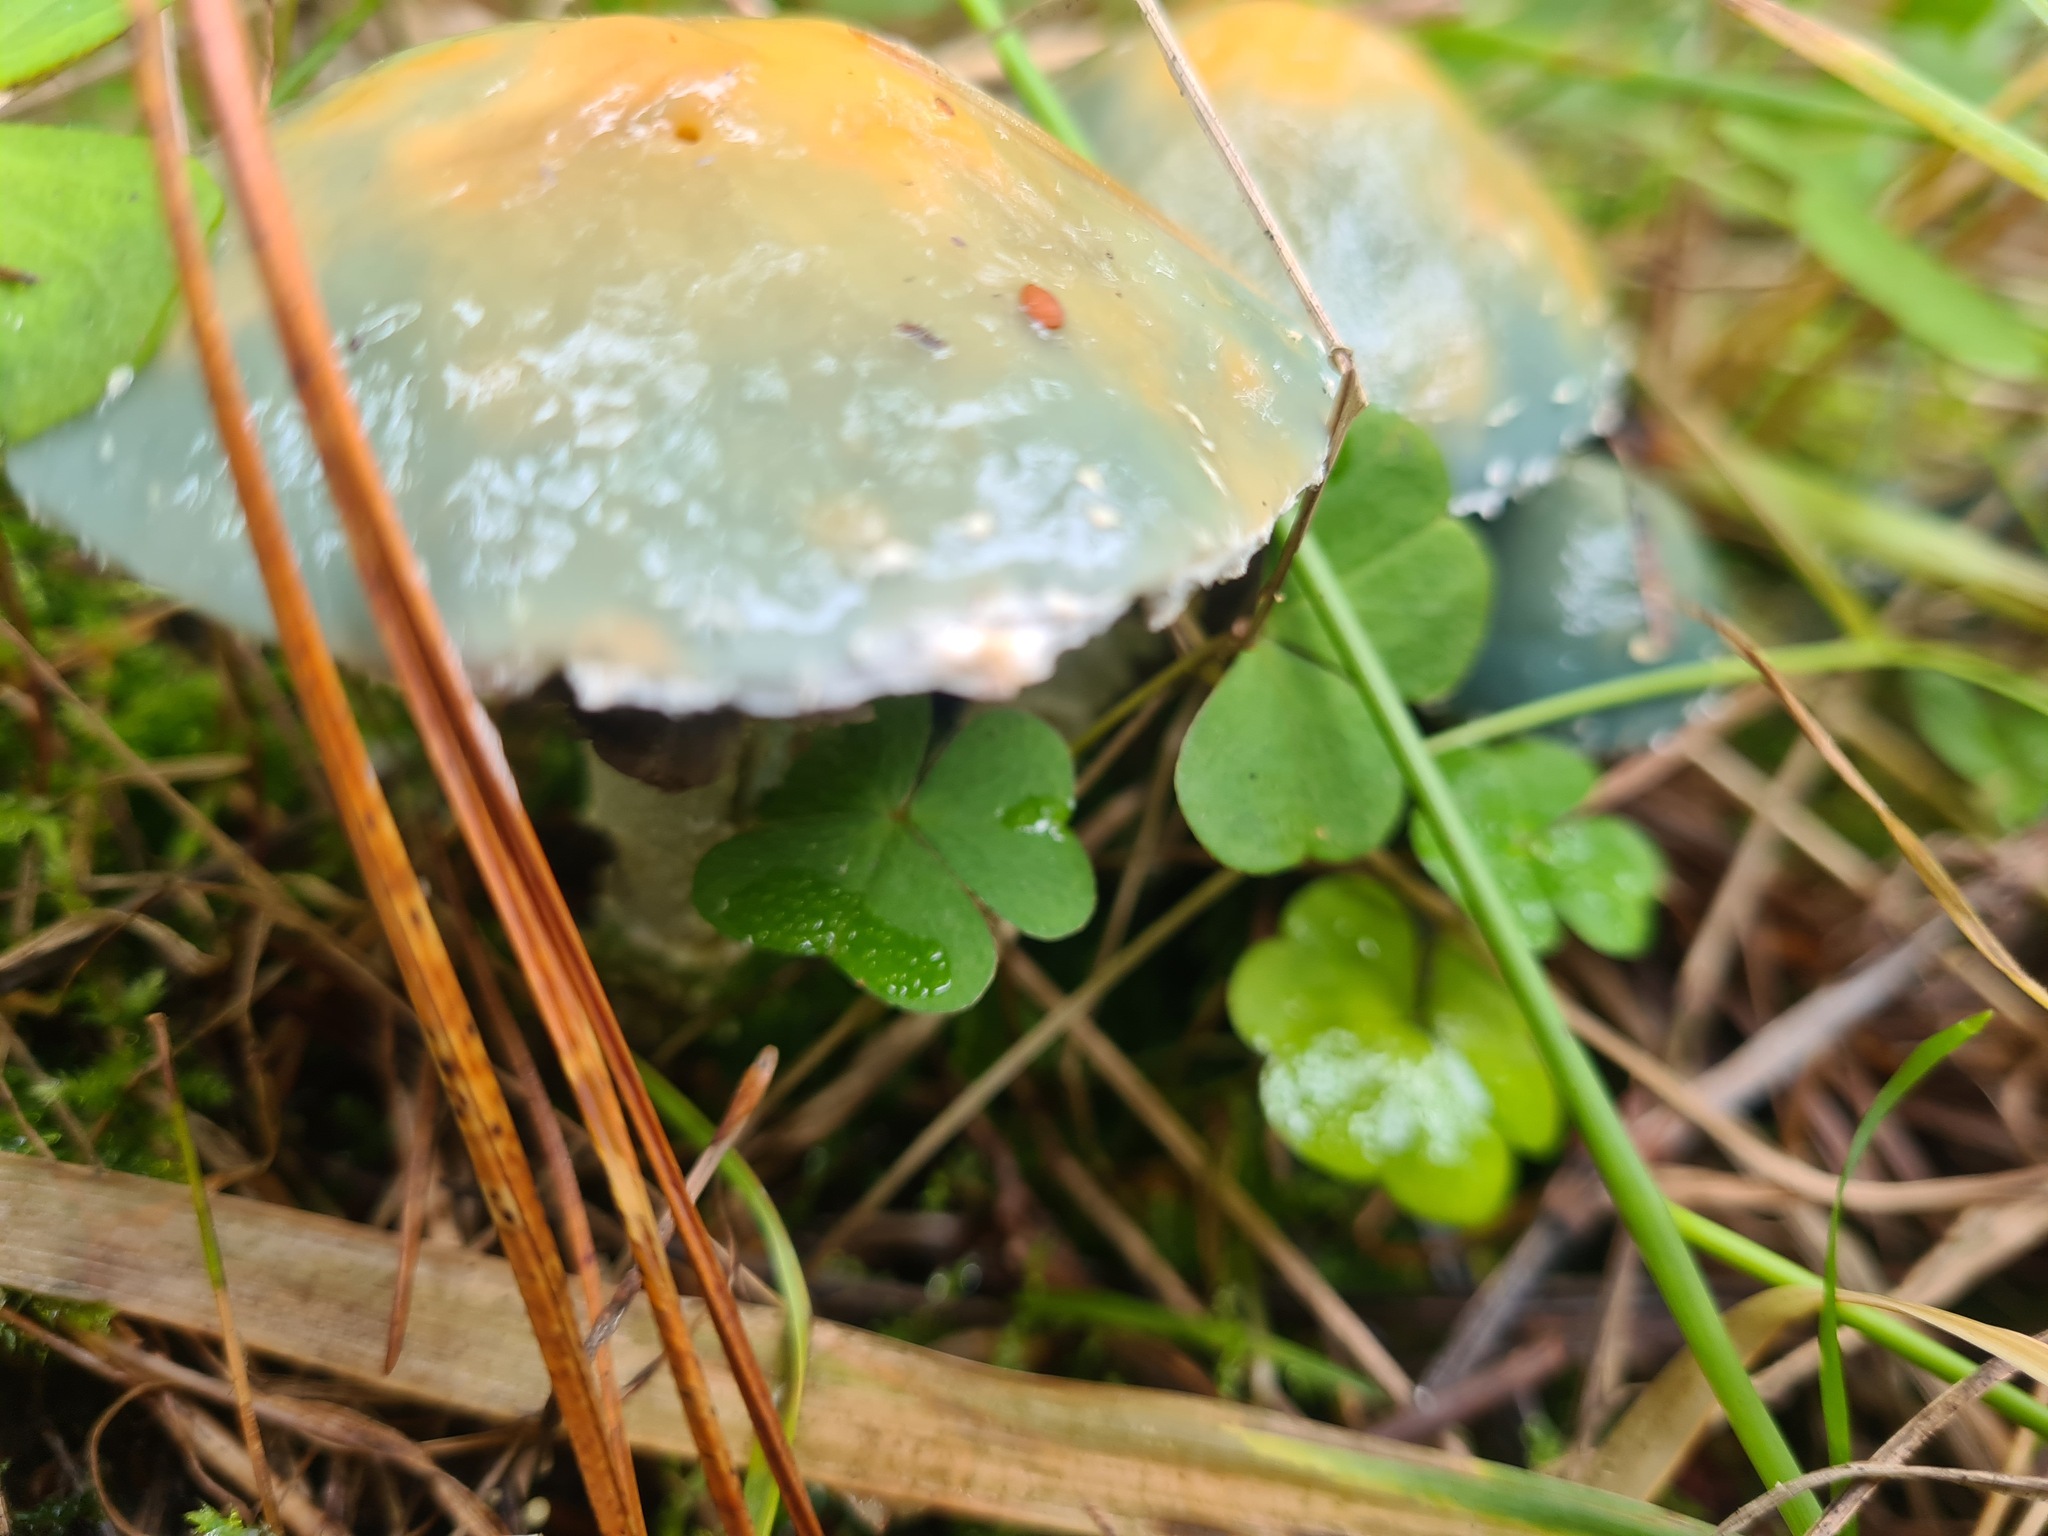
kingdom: Fungi
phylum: Basidiomycota
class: Agaricomycetes
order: Agaricales
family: Strophariaceae
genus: Stropharia
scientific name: Stropharia aeruginosa
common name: Verdigris roundhead
